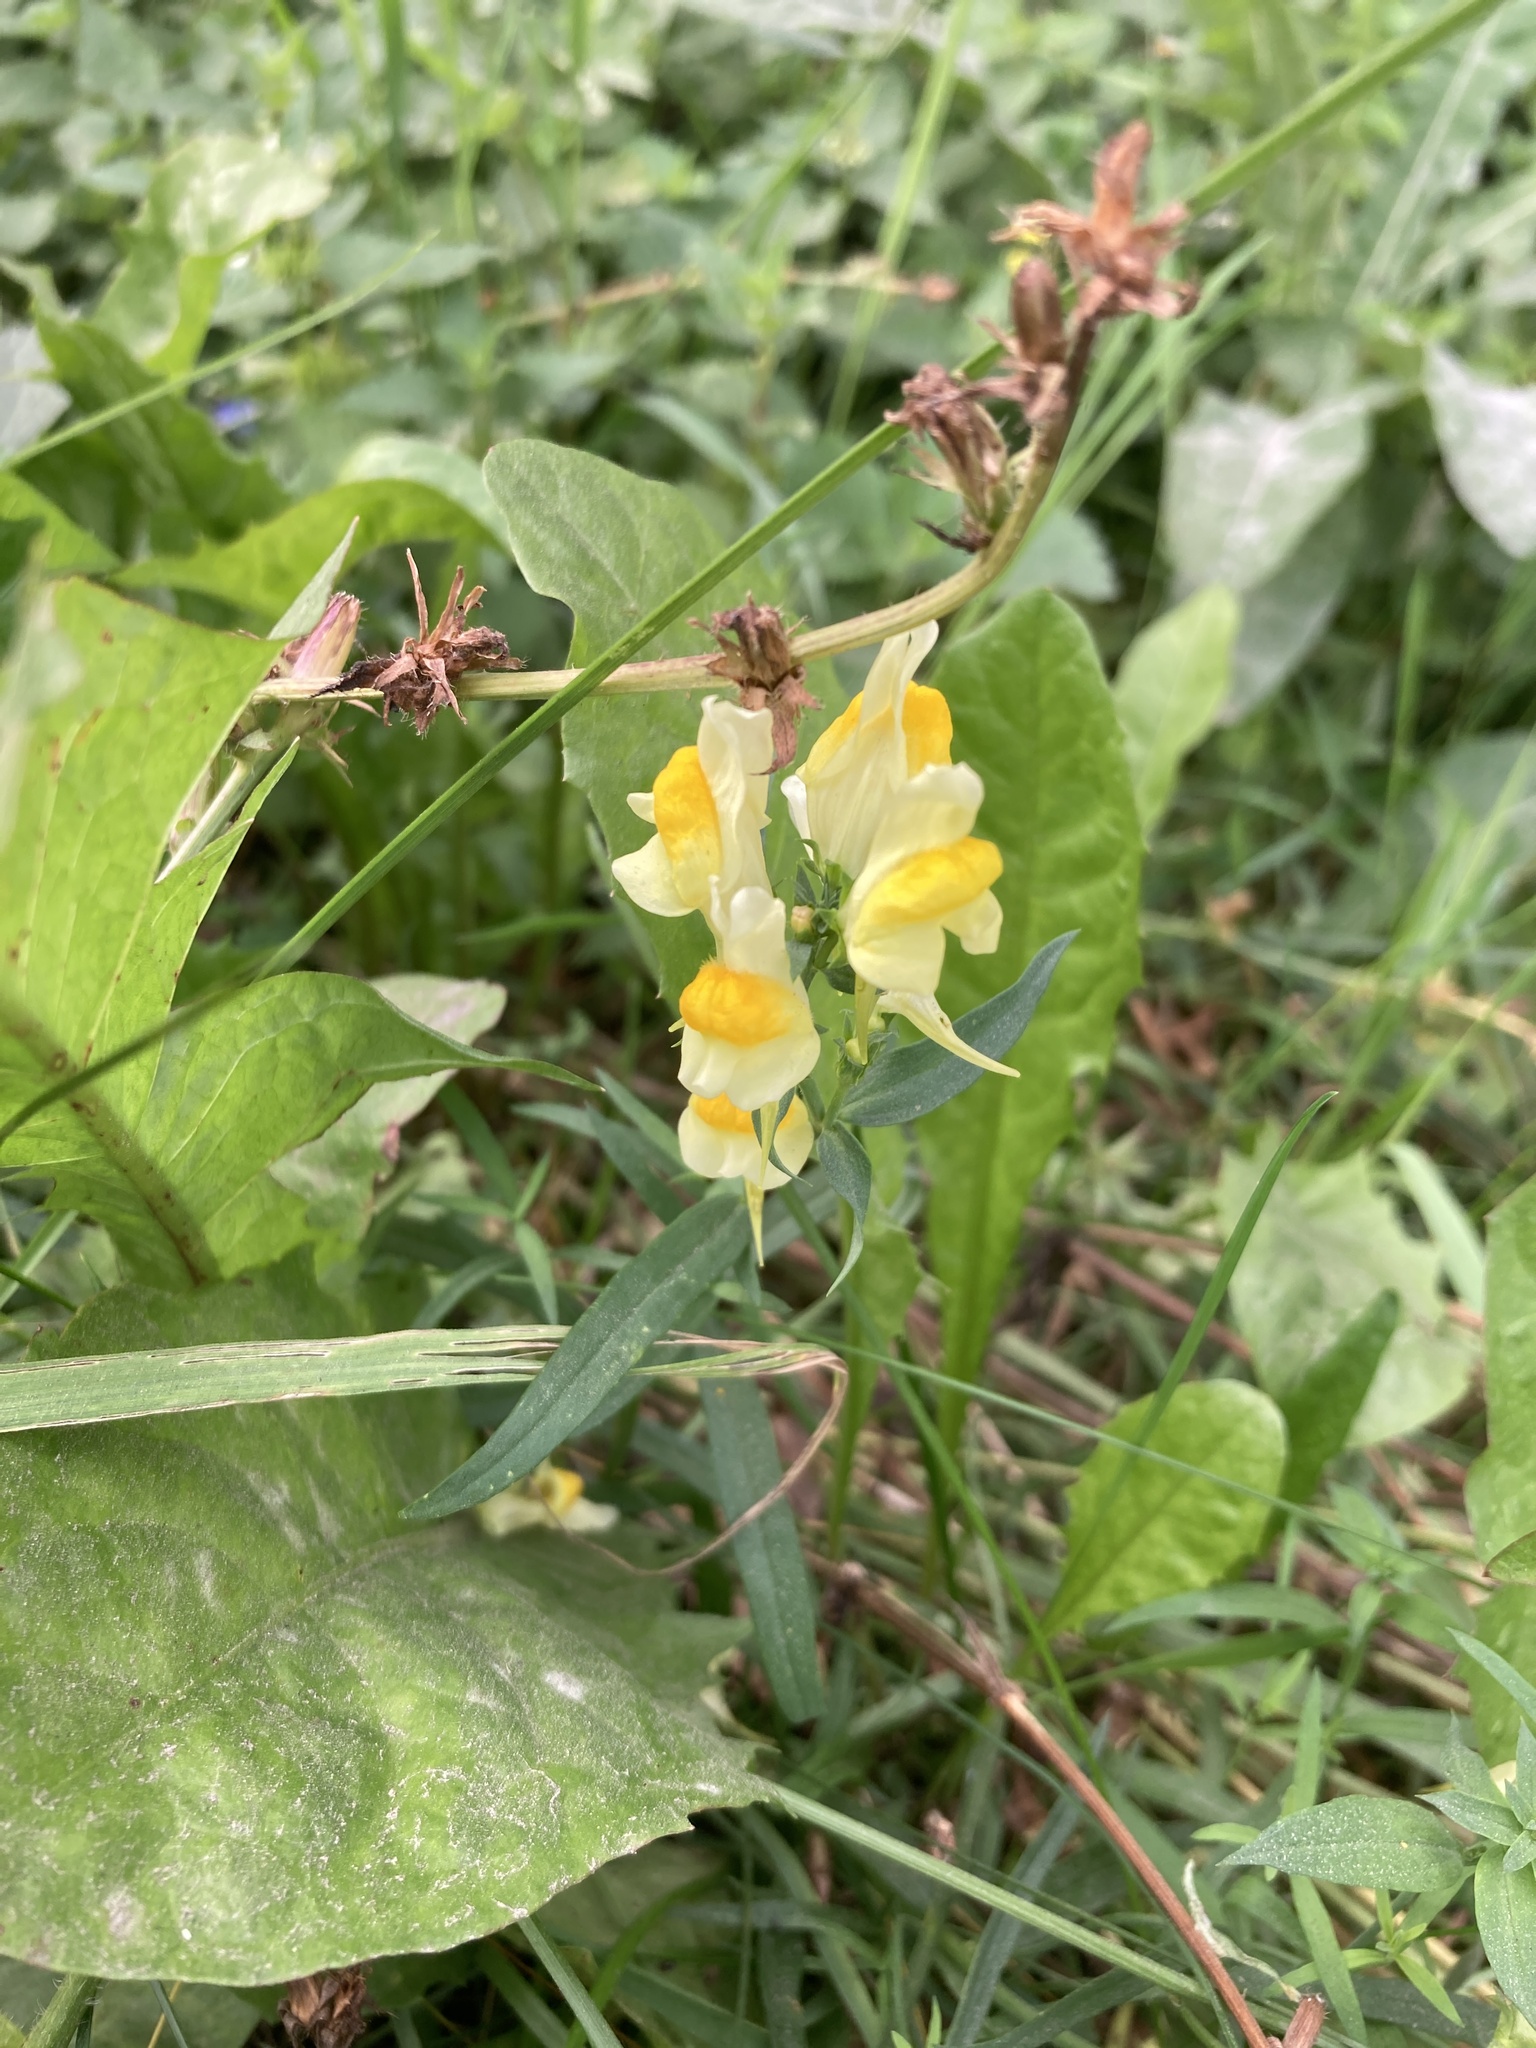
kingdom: Plantae
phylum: Tracheophyta
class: Magnoliopsida
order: Lamiales
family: Plantaginaceae
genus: Linaria
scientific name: Linaria vulgaris
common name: Butter and eggs
